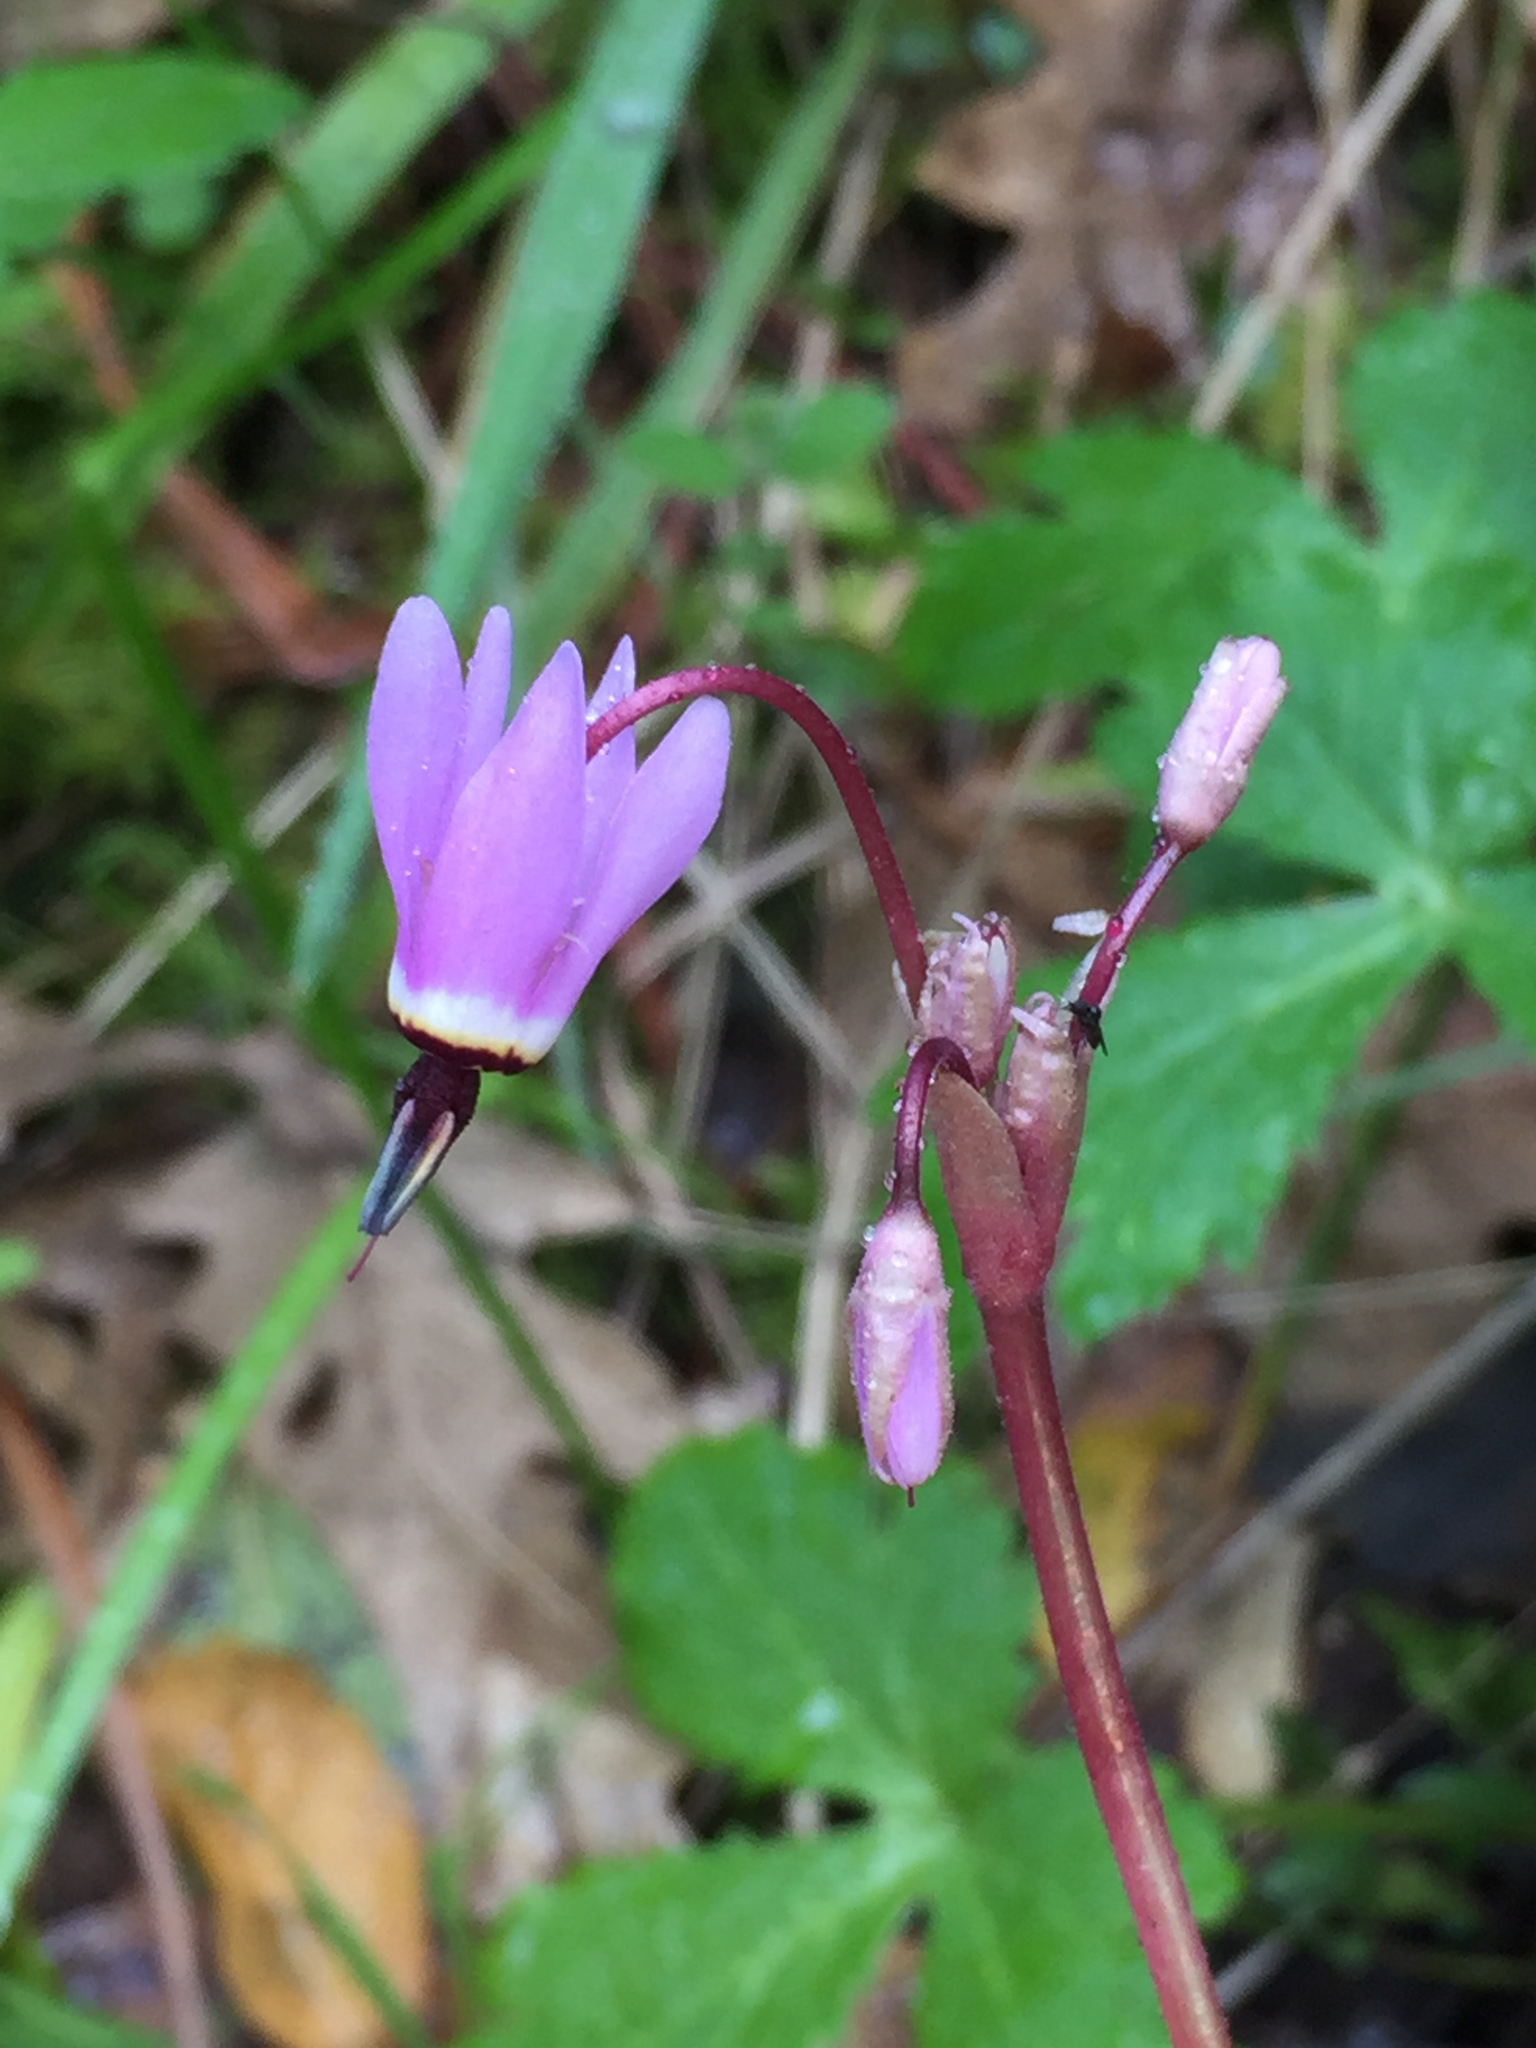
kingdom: Plantae
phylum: Tracheophyta
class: Magnoliopsida
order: Ericales
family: Primulaceae
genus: Dodecatheon
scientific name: Dodecatheon hendersonii
